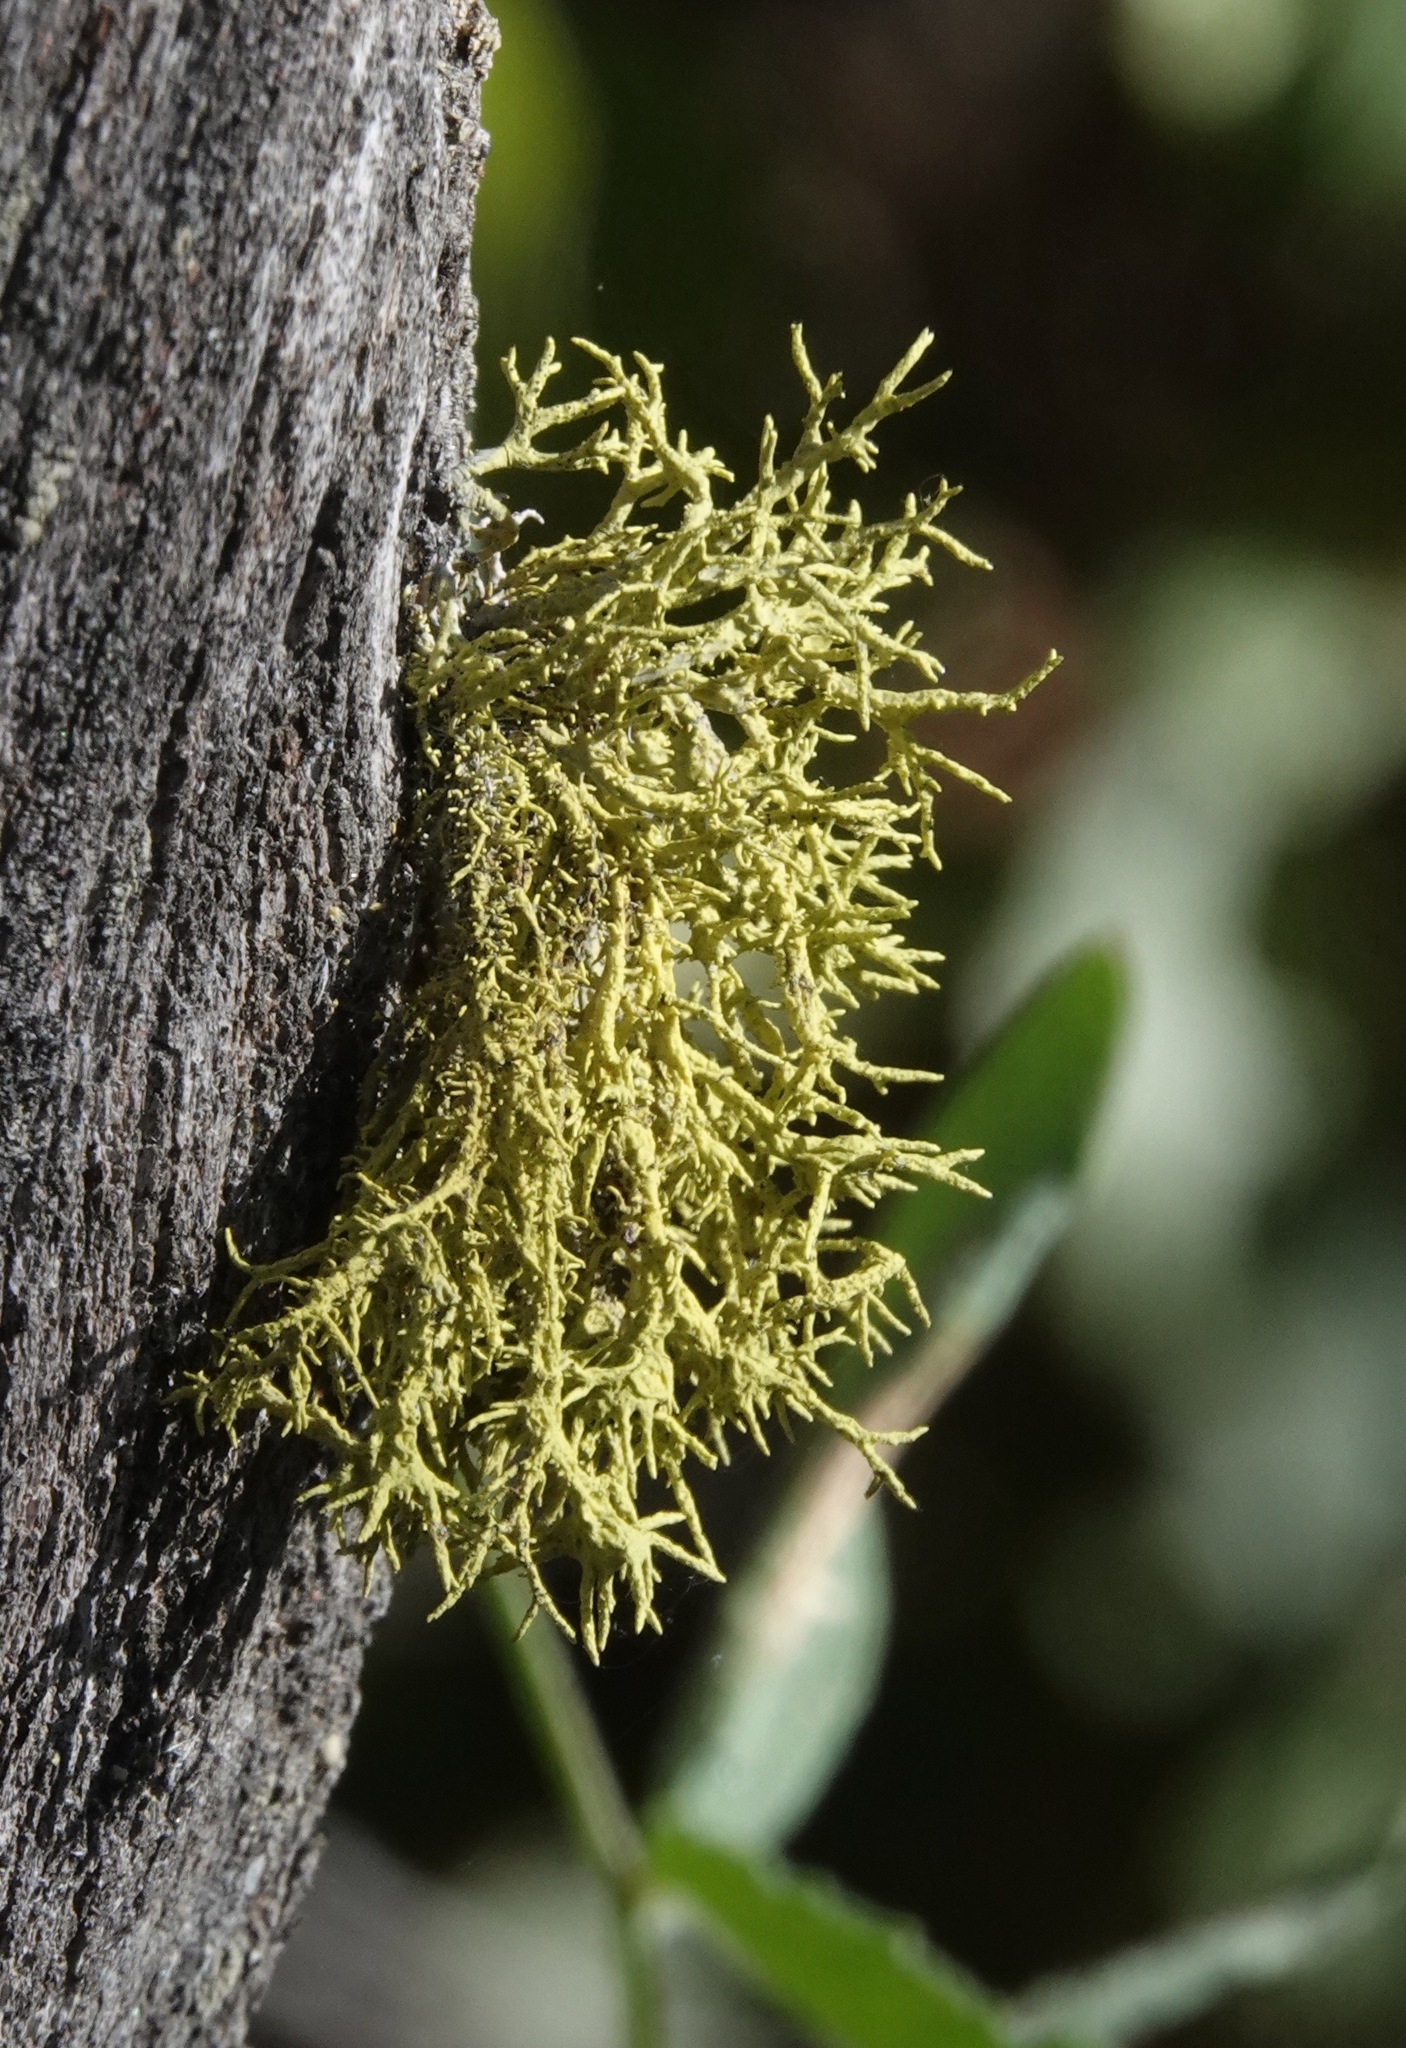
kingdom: Fungi
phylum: Ascomycota
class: Lecanoromycetes
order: Lecanorales
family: Parmeliaceae
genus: Letharia
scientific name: Letharia vulpina
